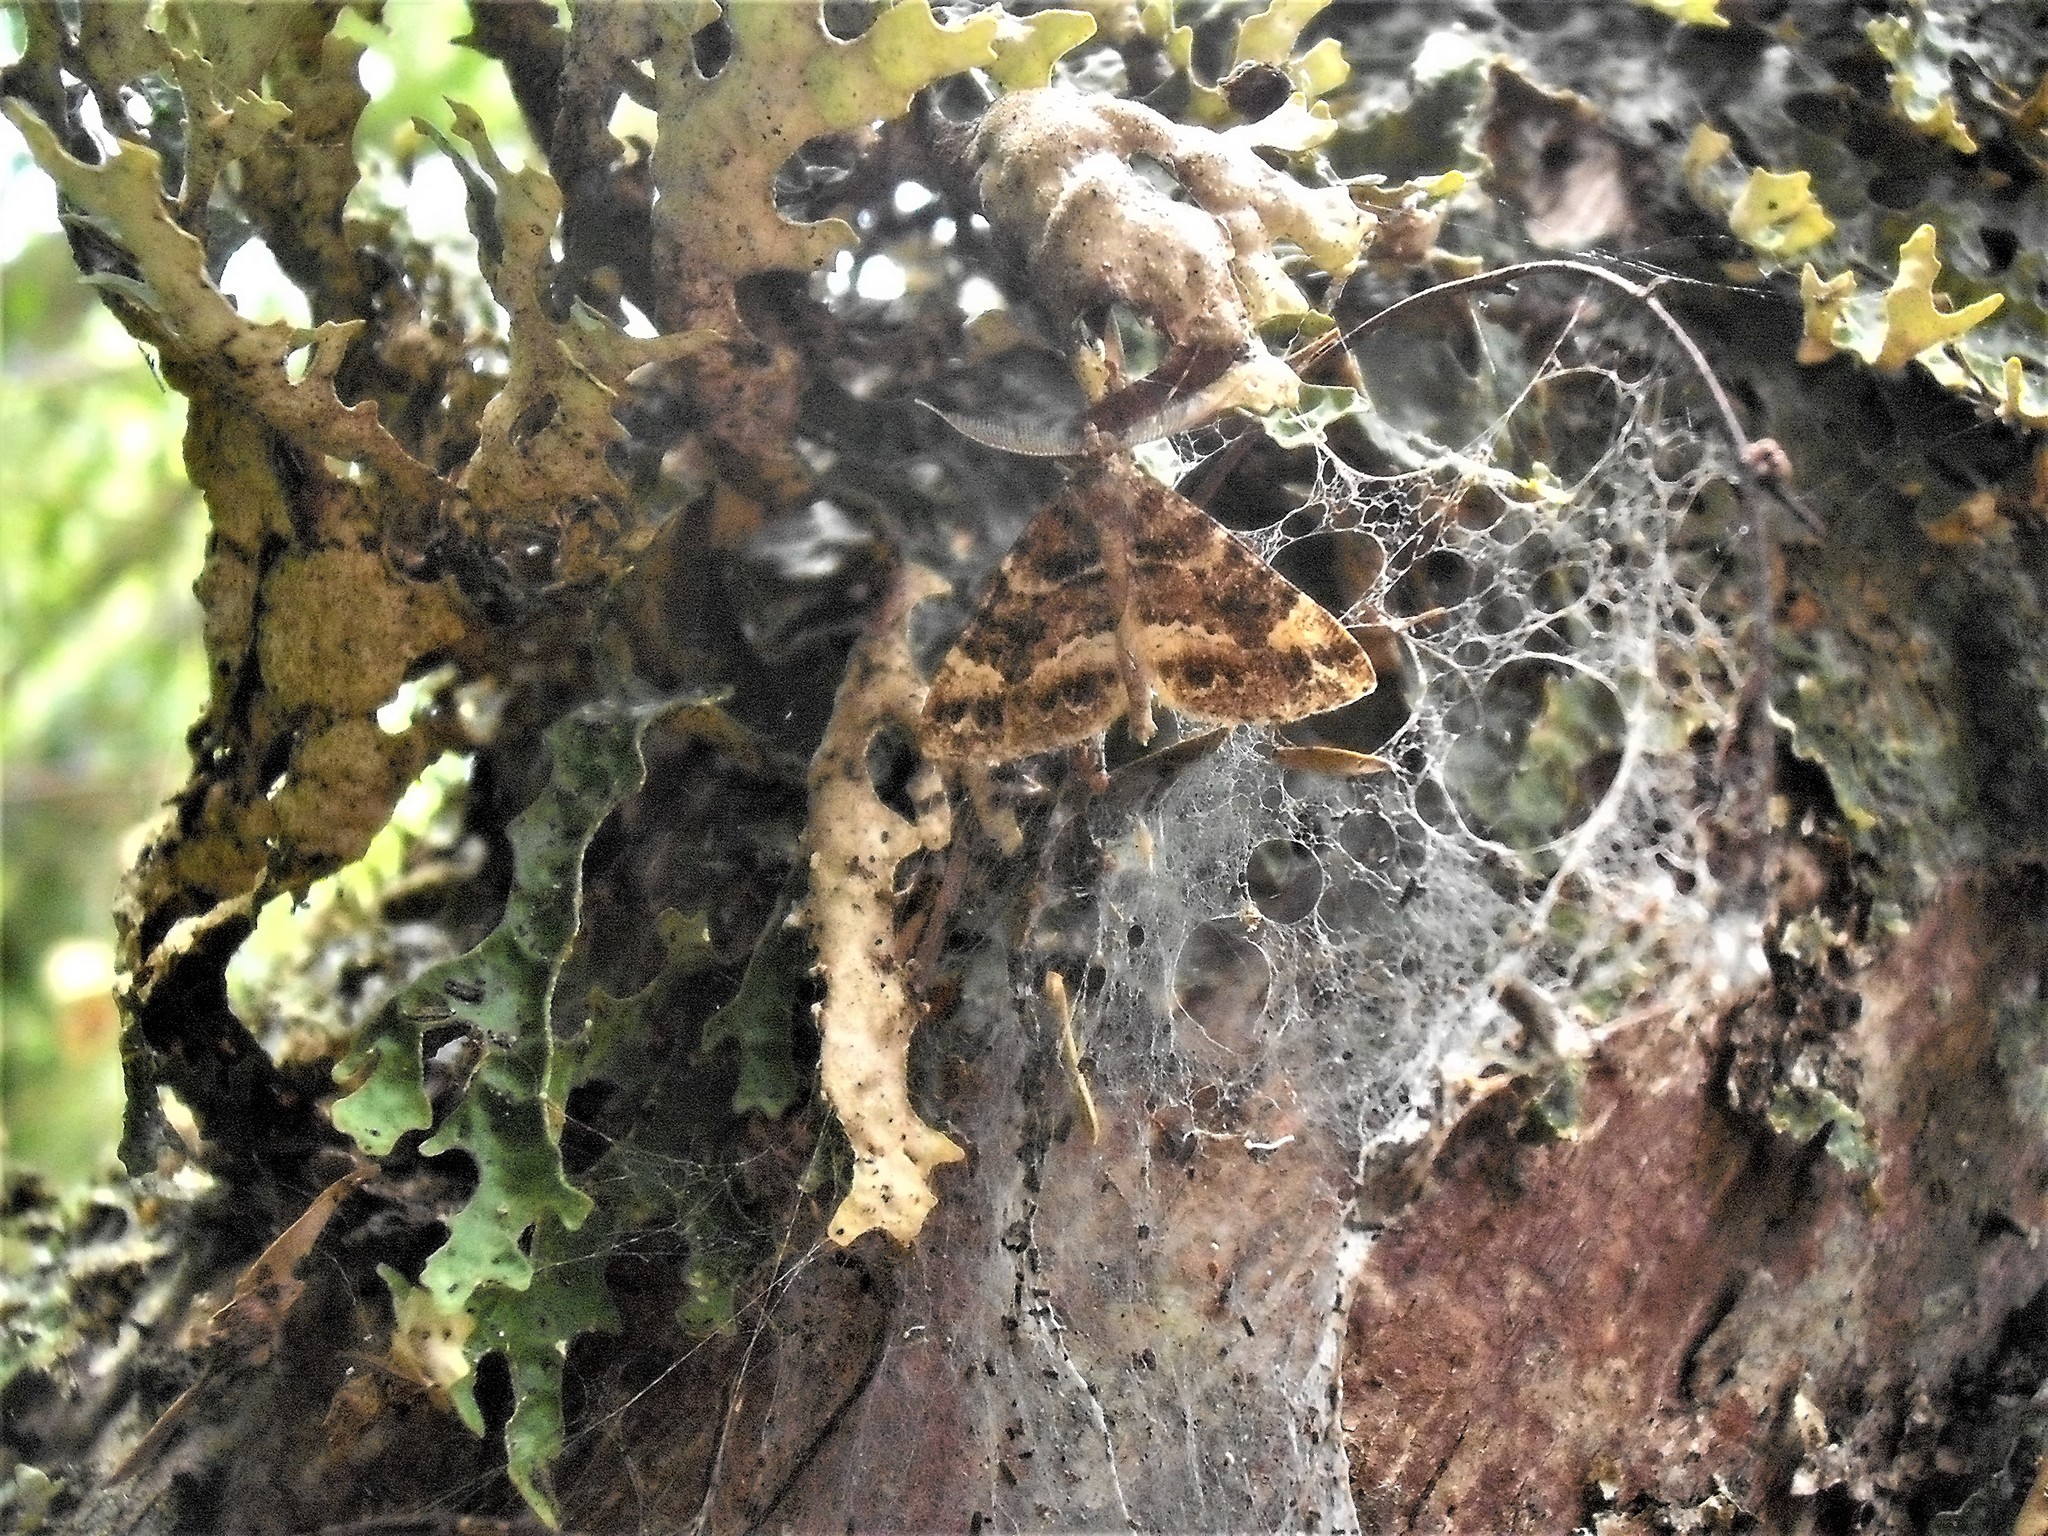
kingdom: Animalia
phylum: Arthropoda
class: Insecta
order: Lepidoptera
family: Geometridae
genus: Pseudocoremia
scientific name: Pseudocoremia productata
